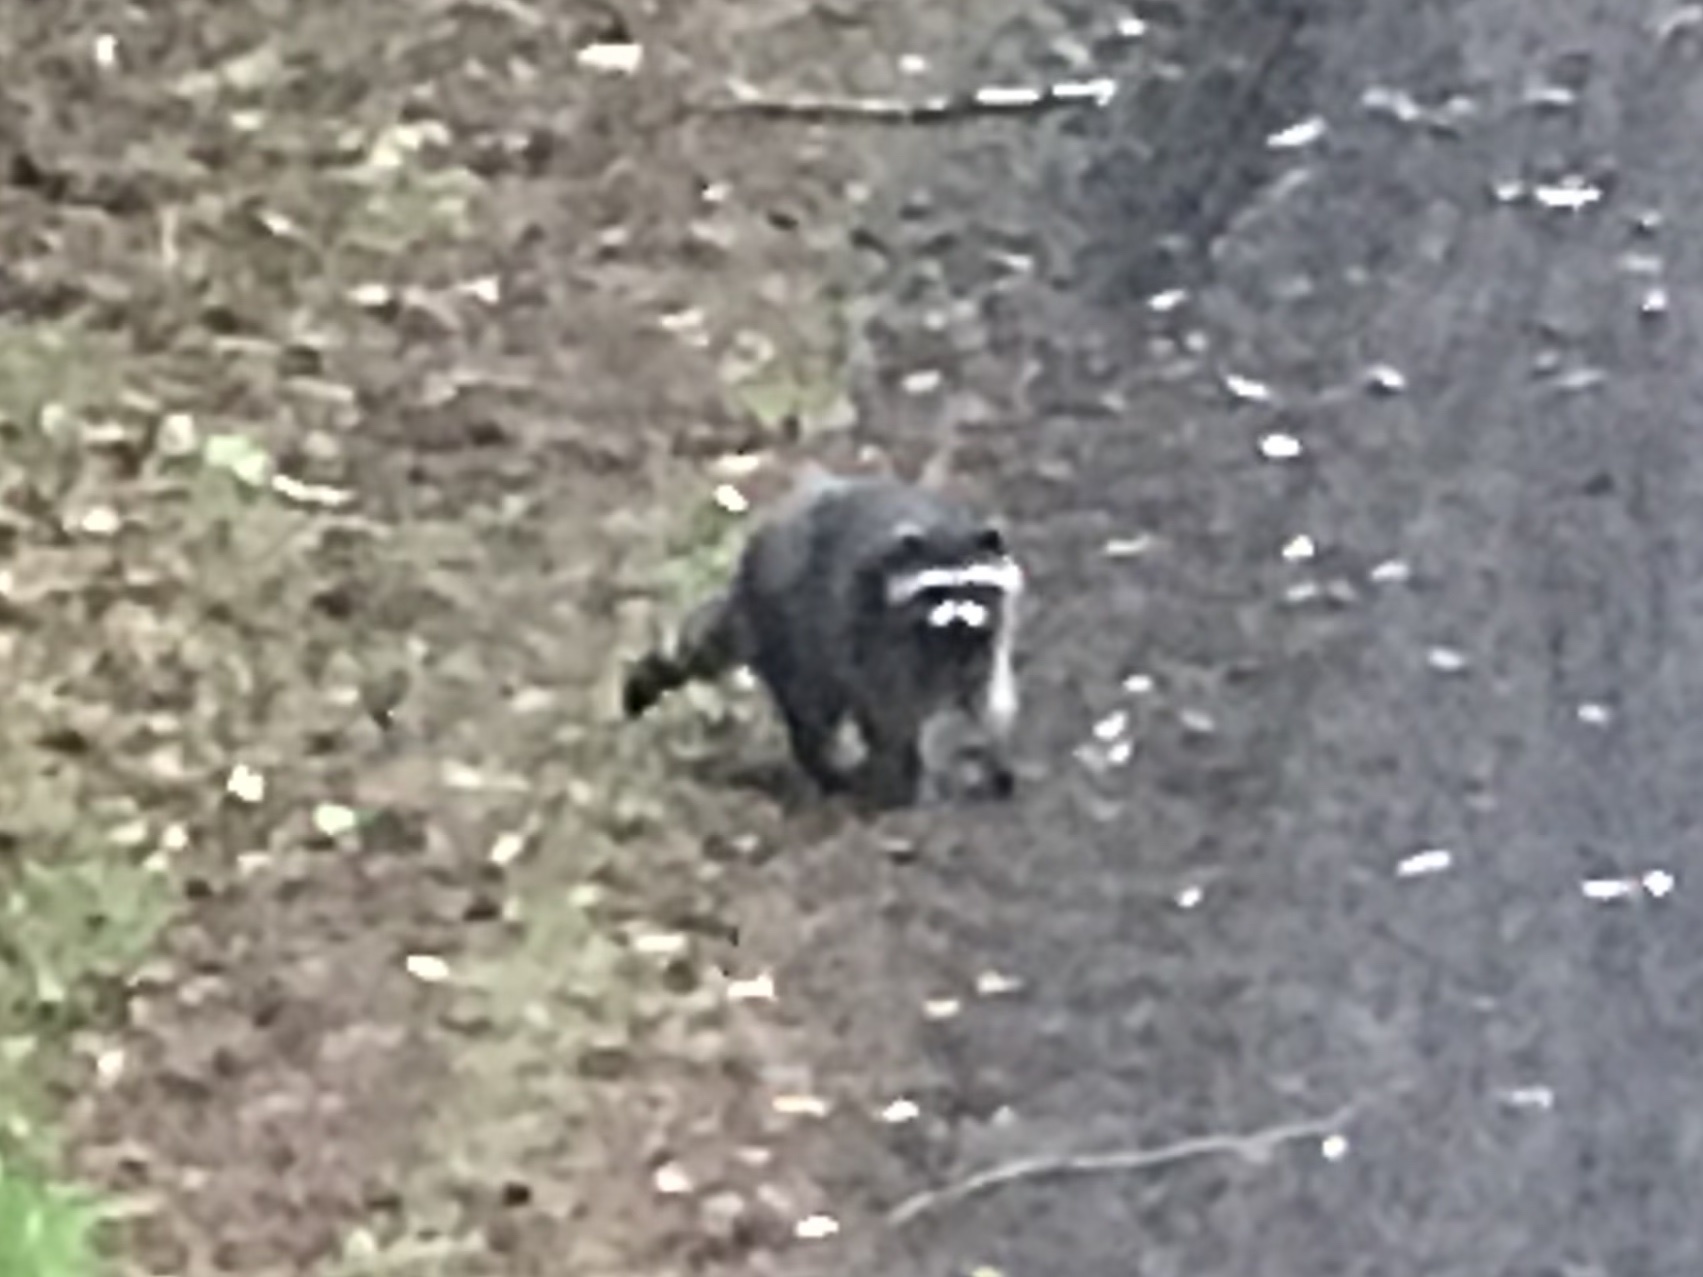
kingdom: Animalia
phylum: Chordata
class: Mammalia
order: Carnivora
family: Procyonidae
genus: Procyon
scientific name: Procyon lotor
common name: Raccoon
